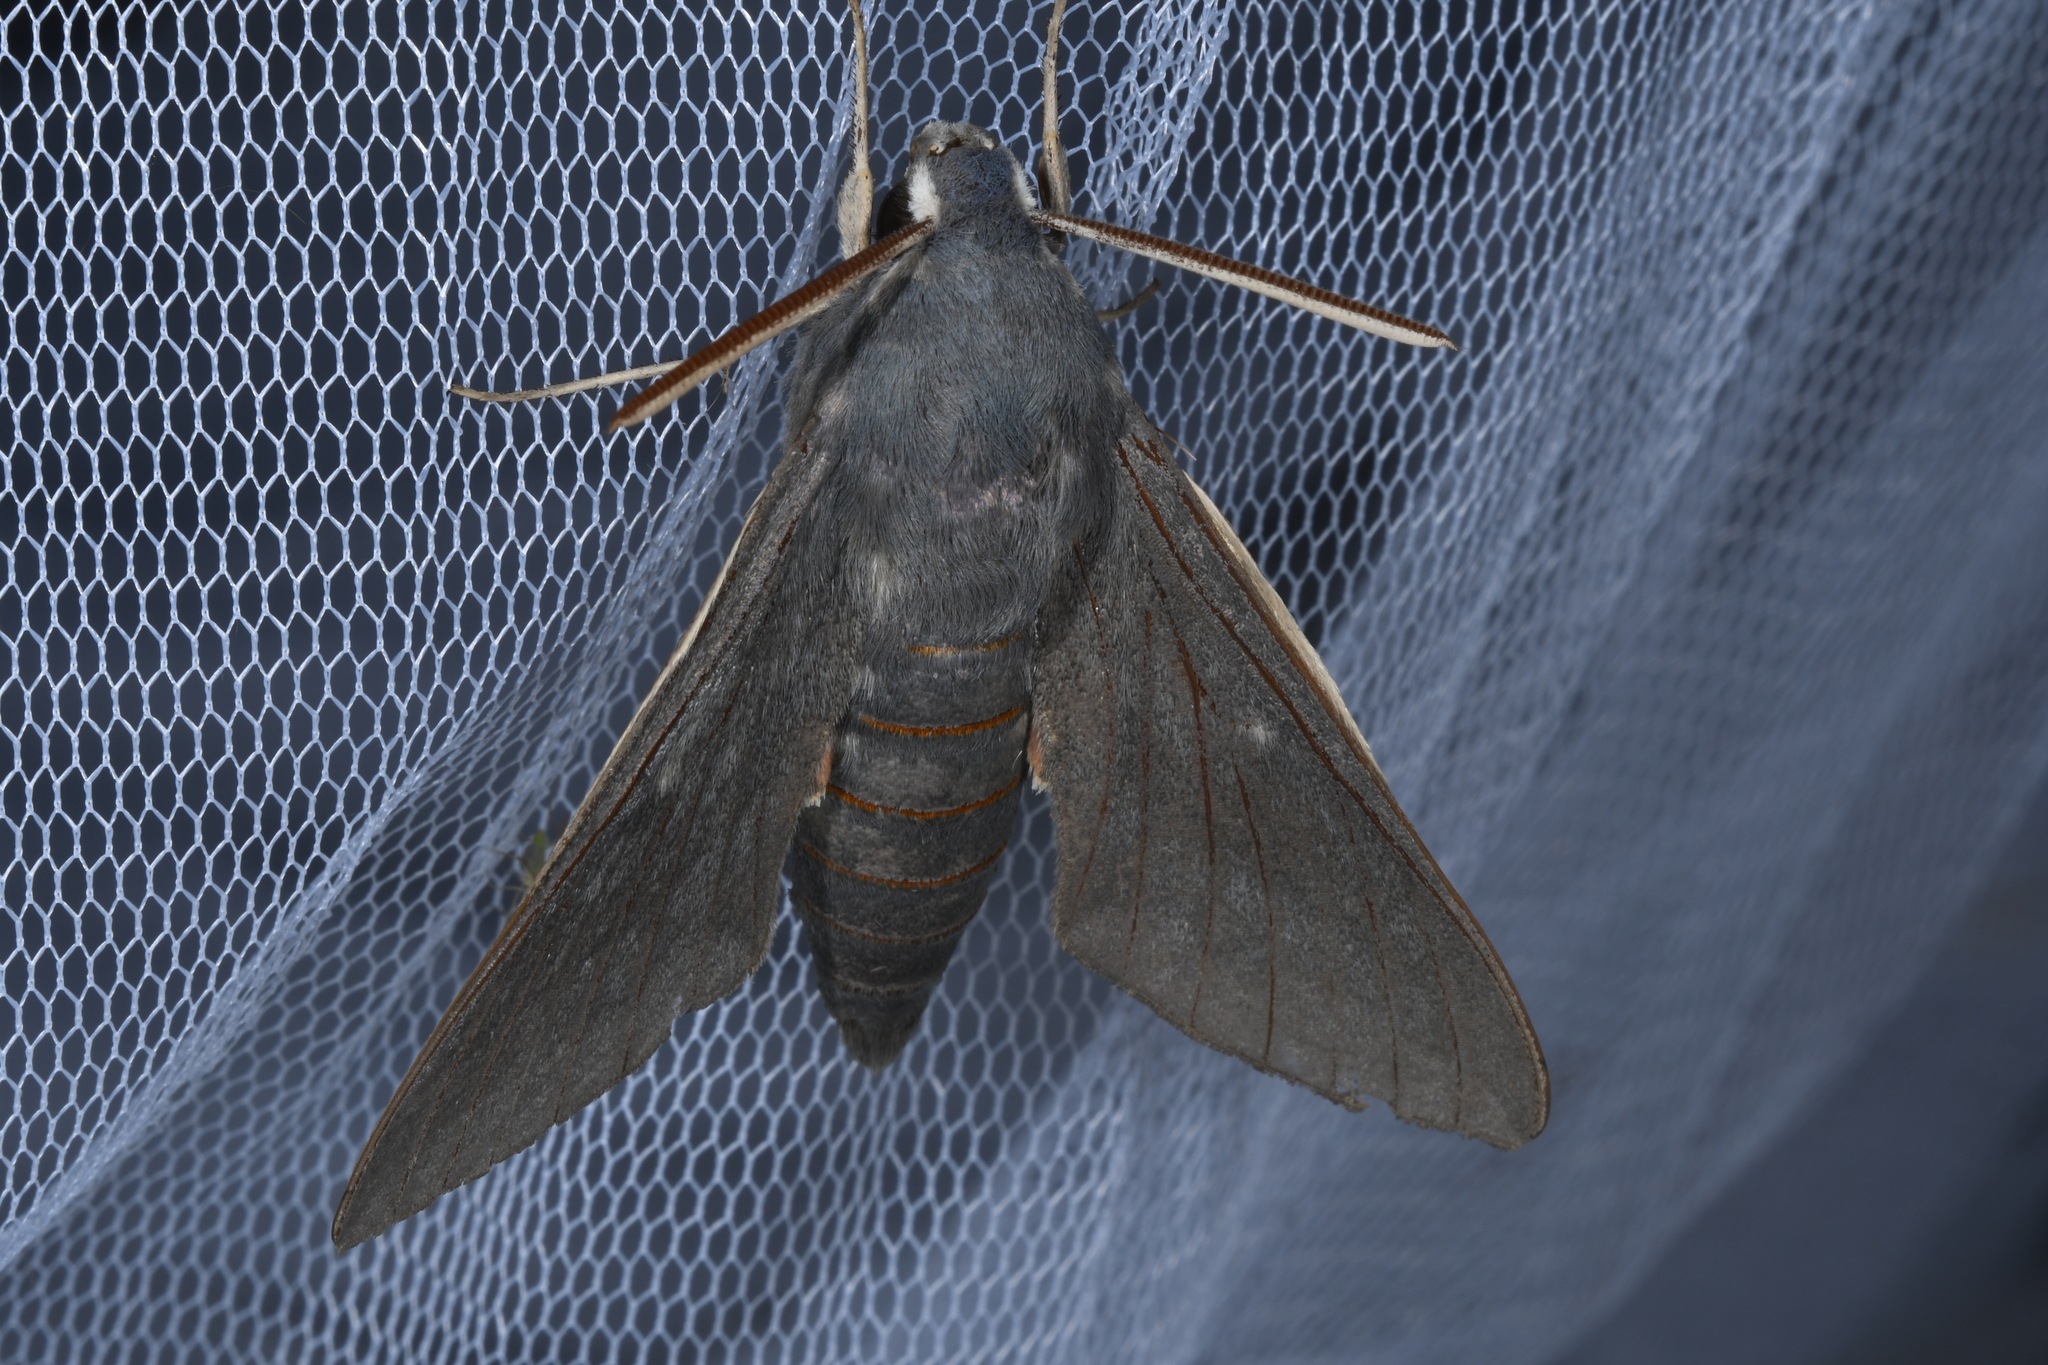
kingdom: Animalia
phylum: Arthropoda
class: Insecta
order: Lepidoptera
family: Sphingidae
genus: Hyles
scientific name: Hyles vespertilio
